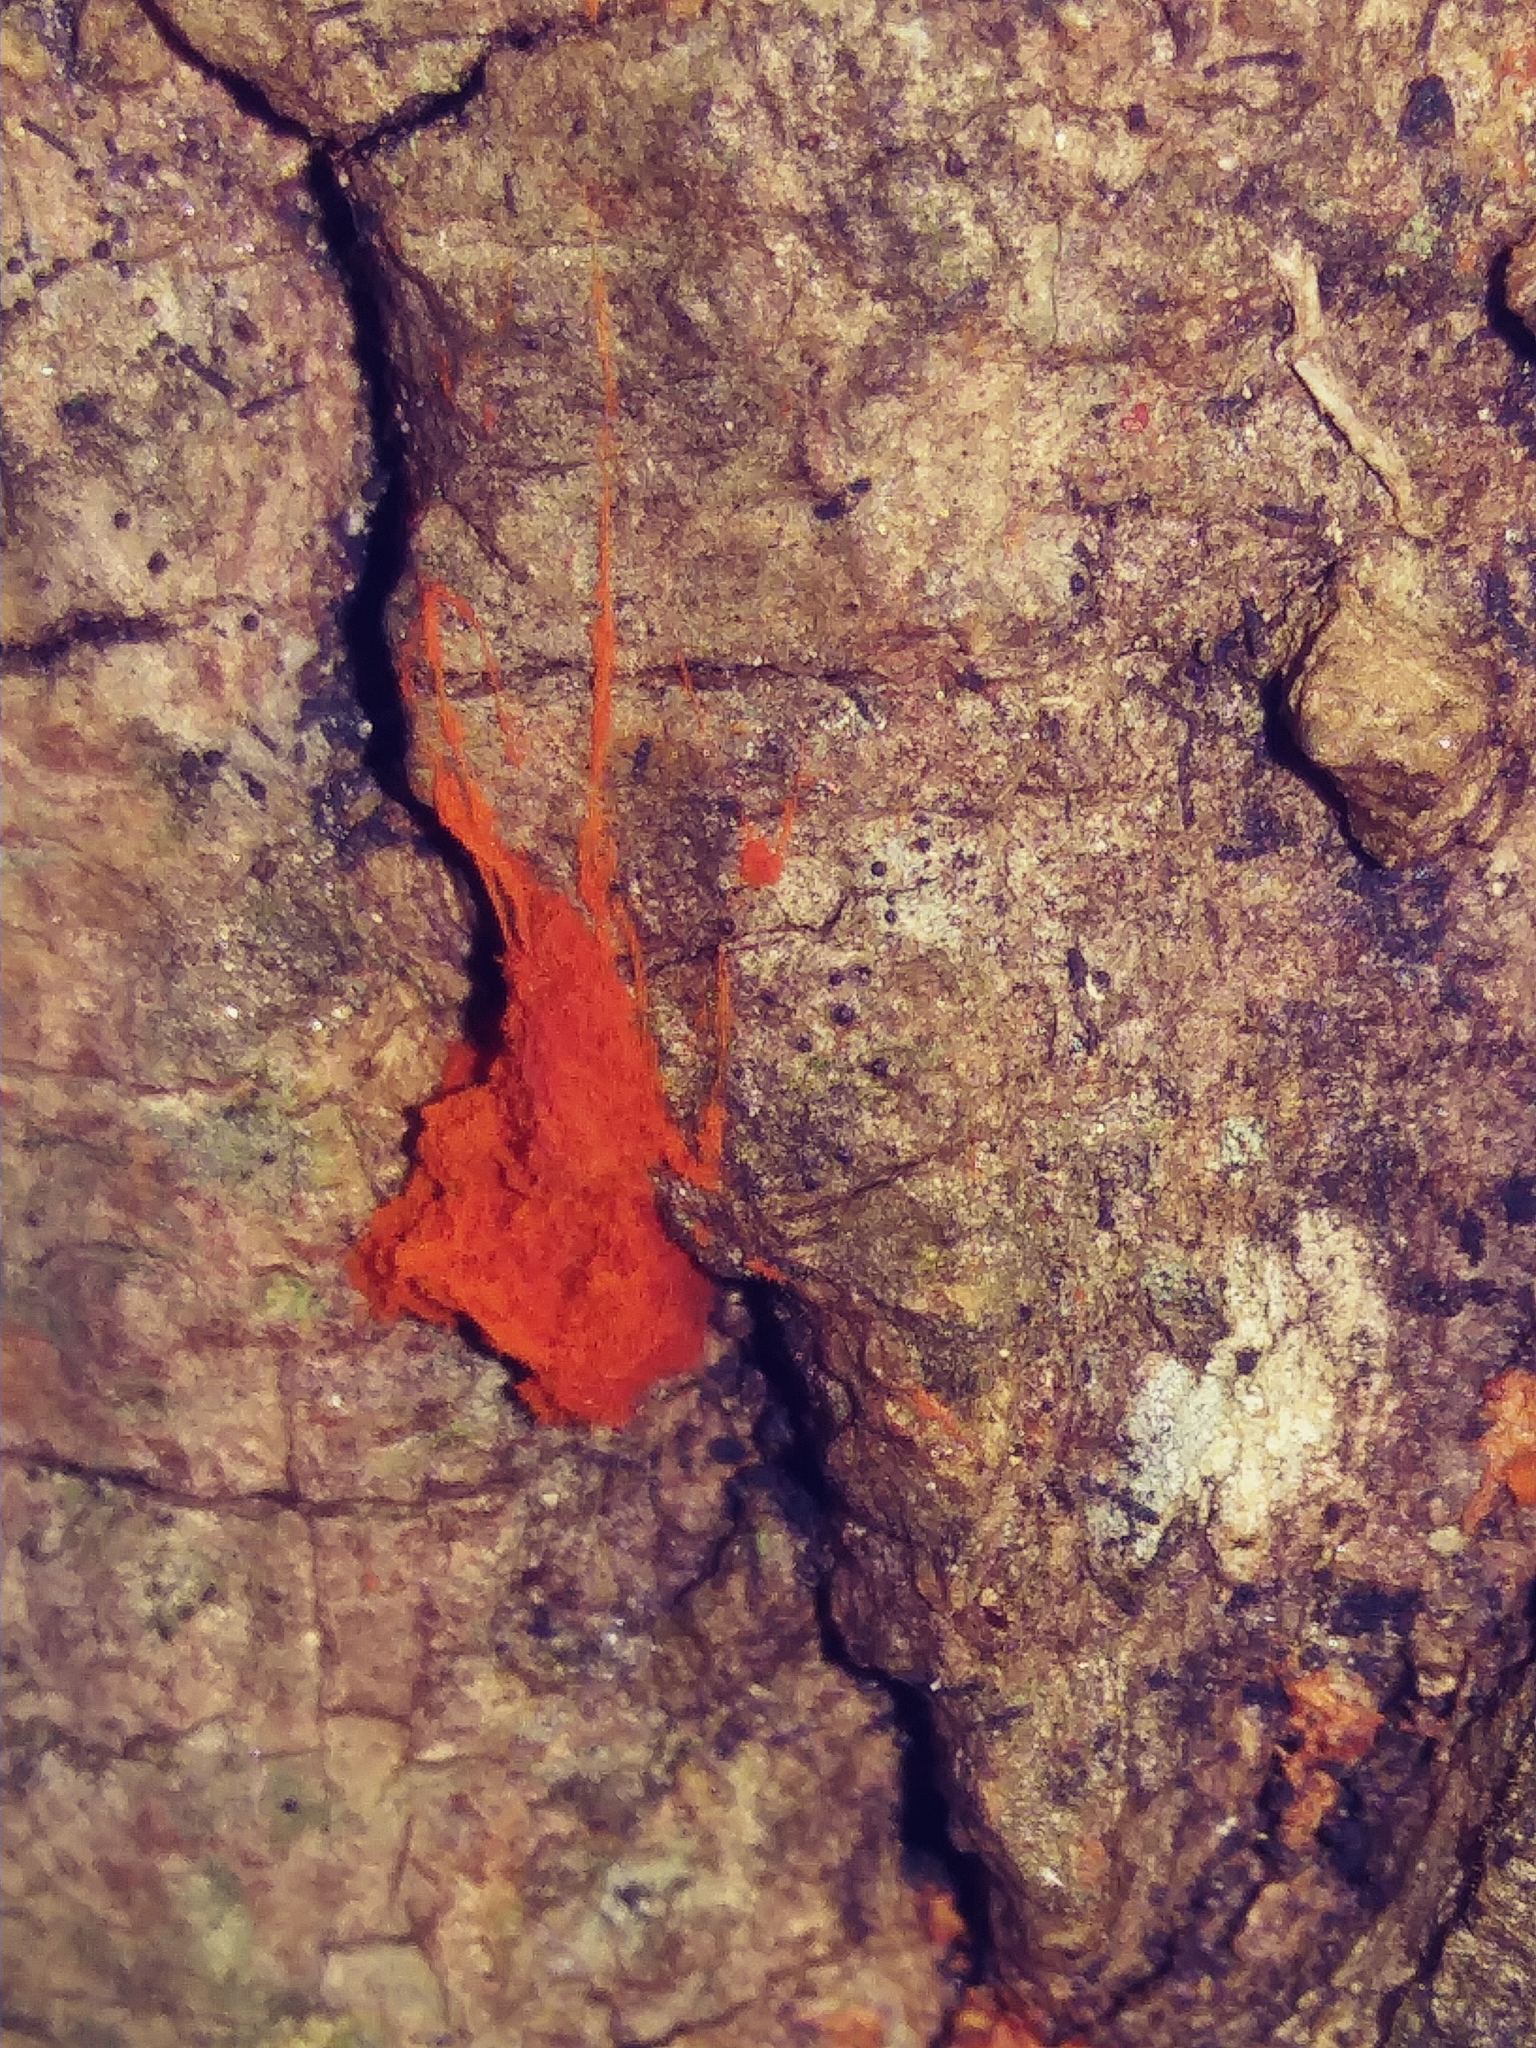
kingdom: Protozoa
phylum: Mycetozoa
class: Myxomycetes
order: Trichiales
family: Trichiaceae
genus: Metatrichia
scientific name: Metatrichia vesparia
